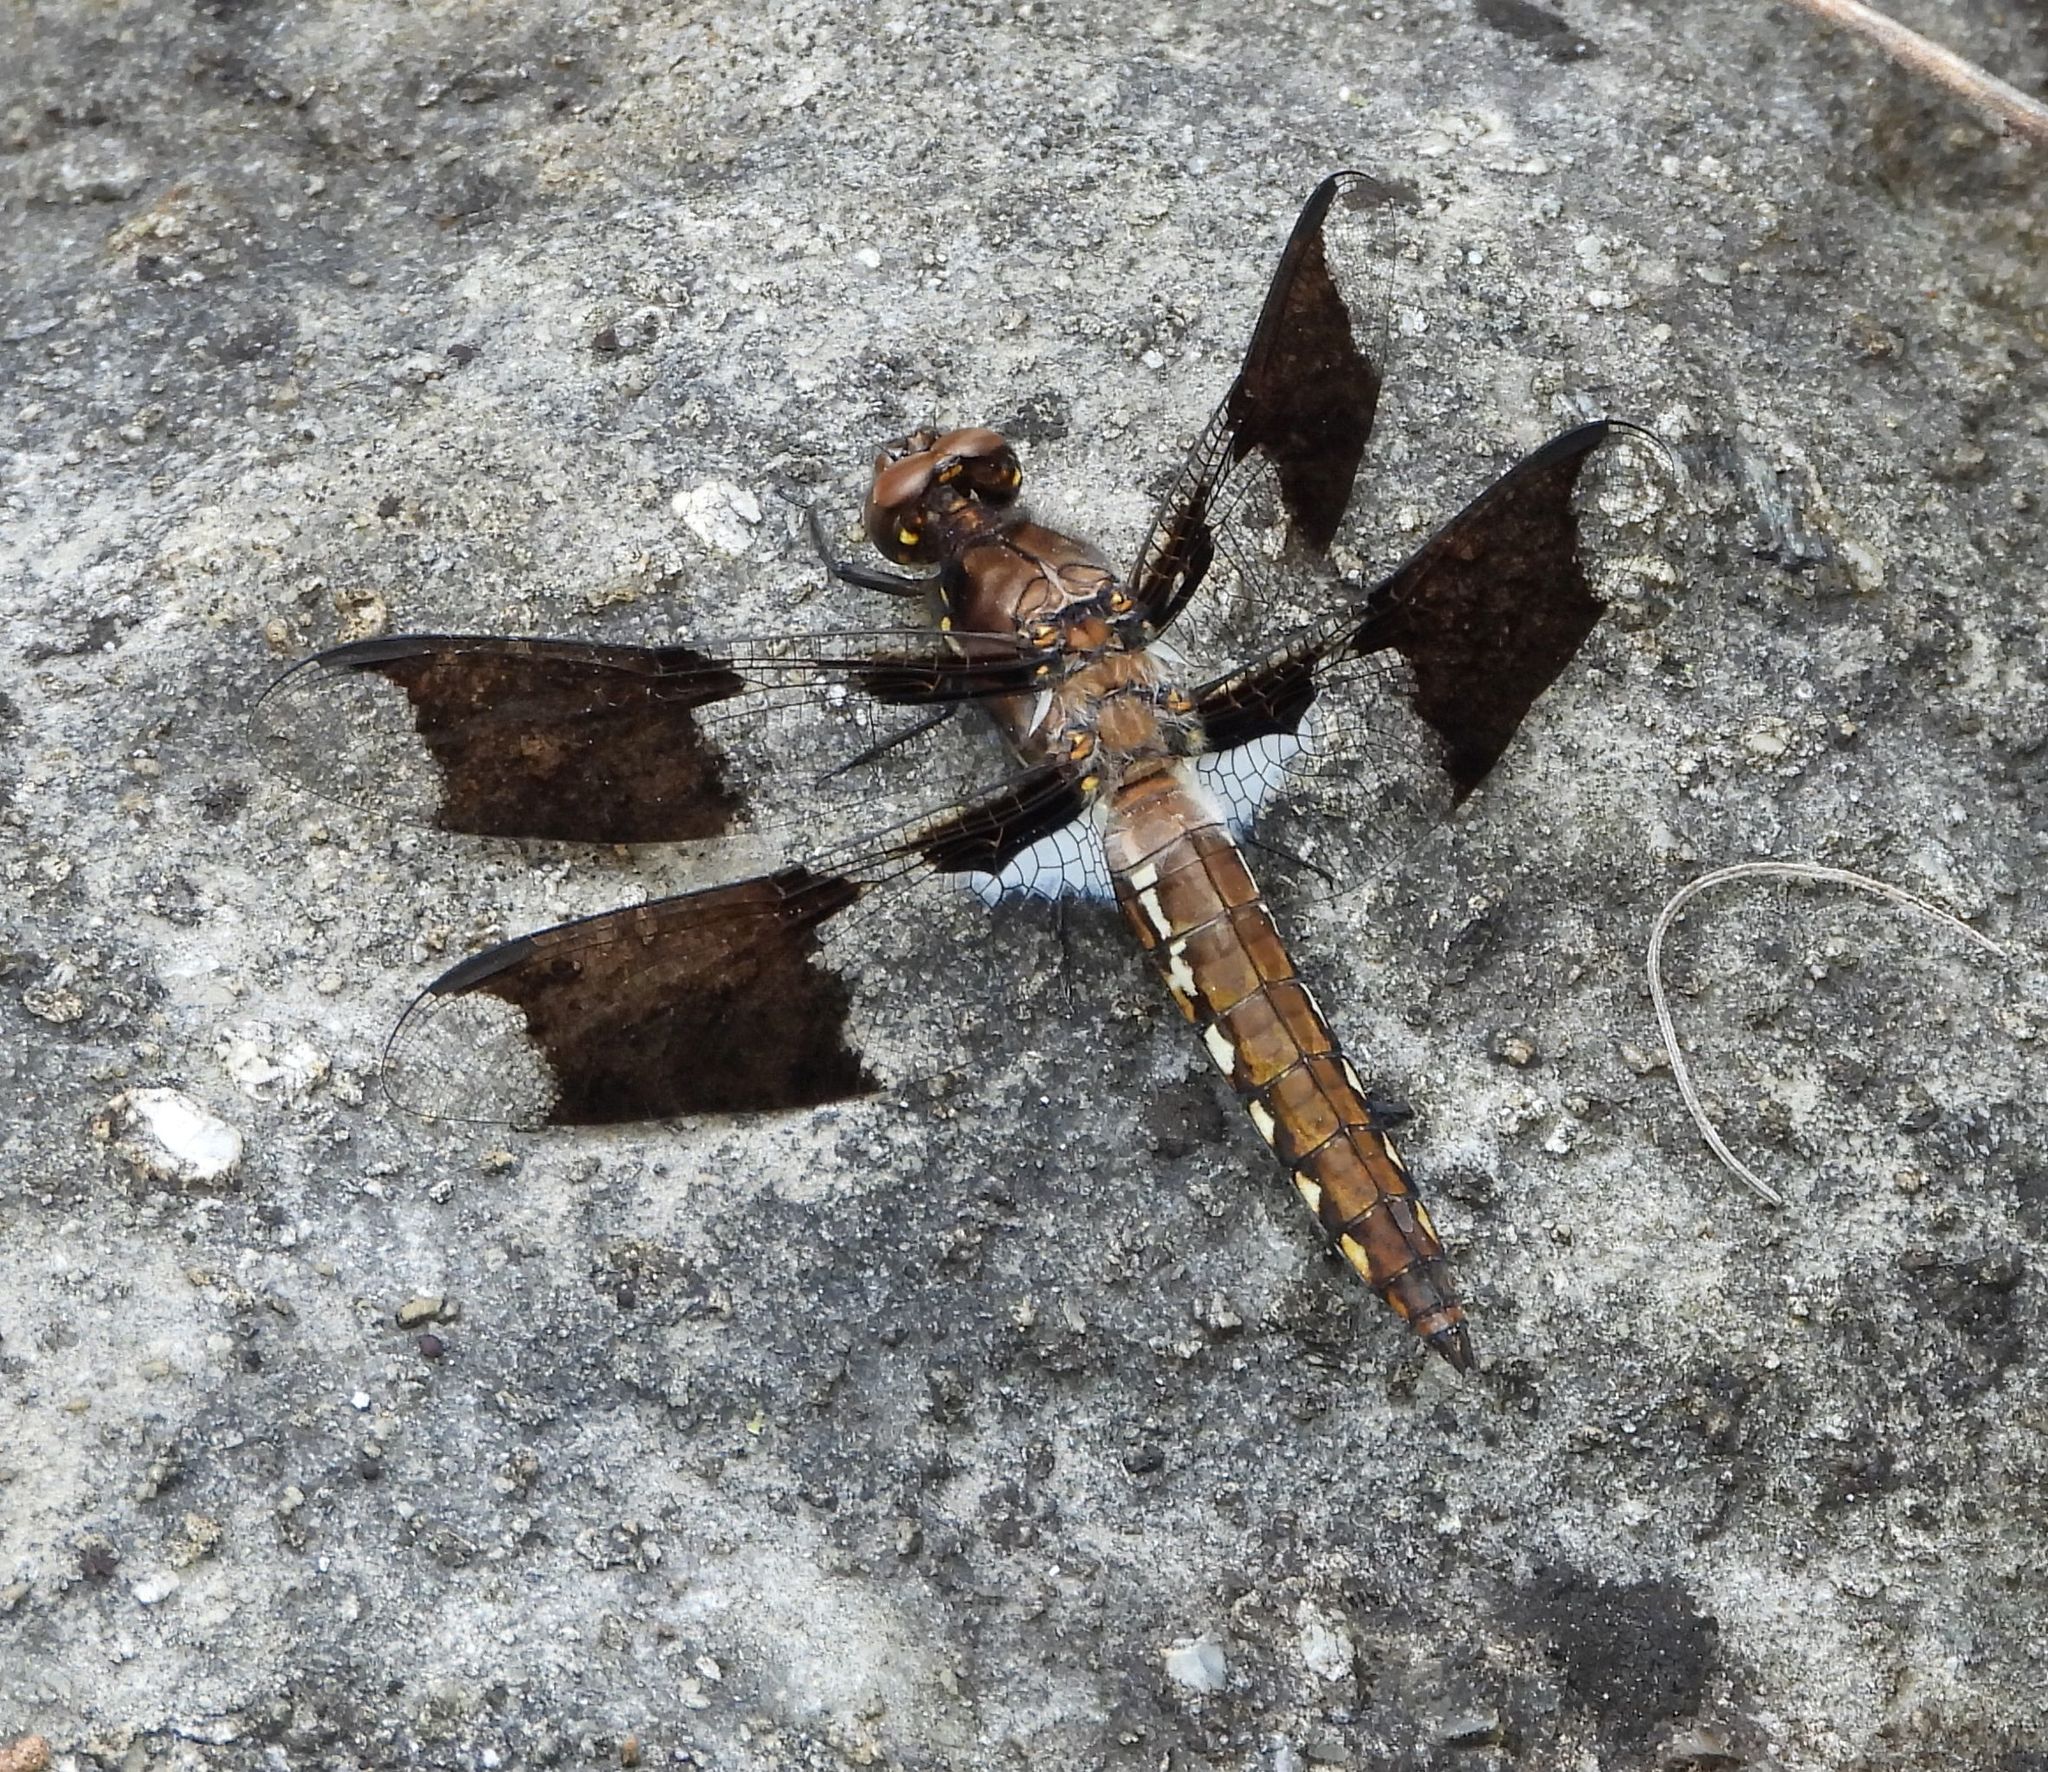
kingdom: Animalia
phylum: Arthropoda
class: Insecta
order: Odonata
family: Libellulidae
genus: Plathemis
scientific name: Plathemis lydia
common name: Common whitetail
